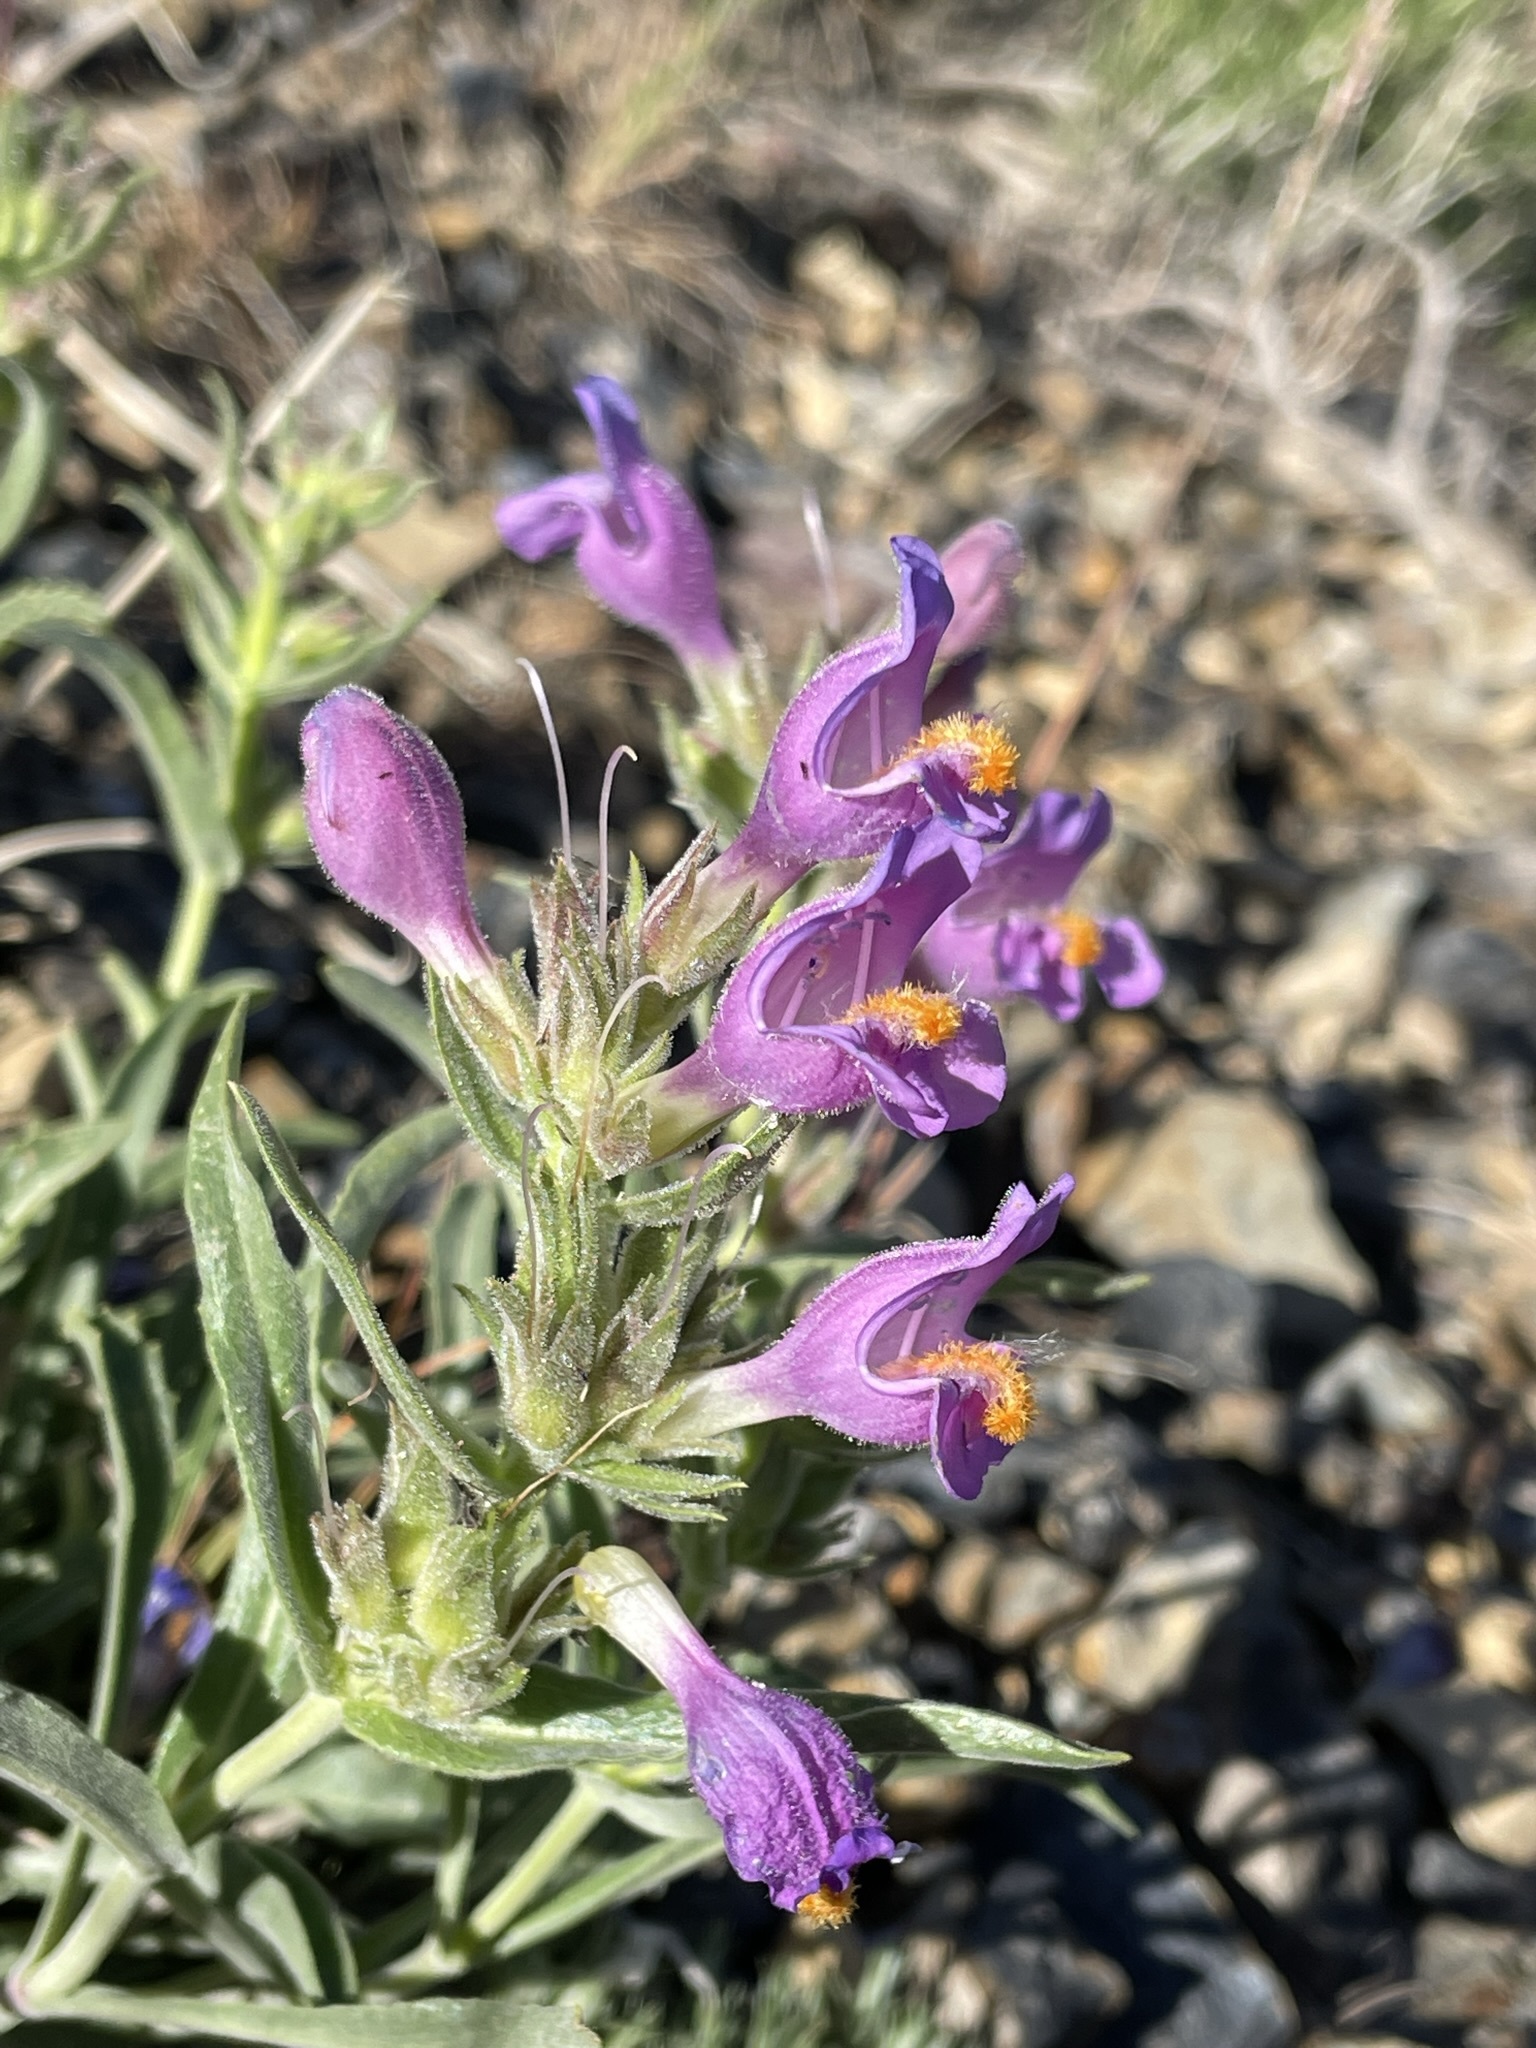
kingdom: Plantae
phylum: Tracheophyta
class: Magnoliopsida
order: Lamiales
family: Plantaginaceae
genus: Penstemon
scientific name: Penstemon janishiae
